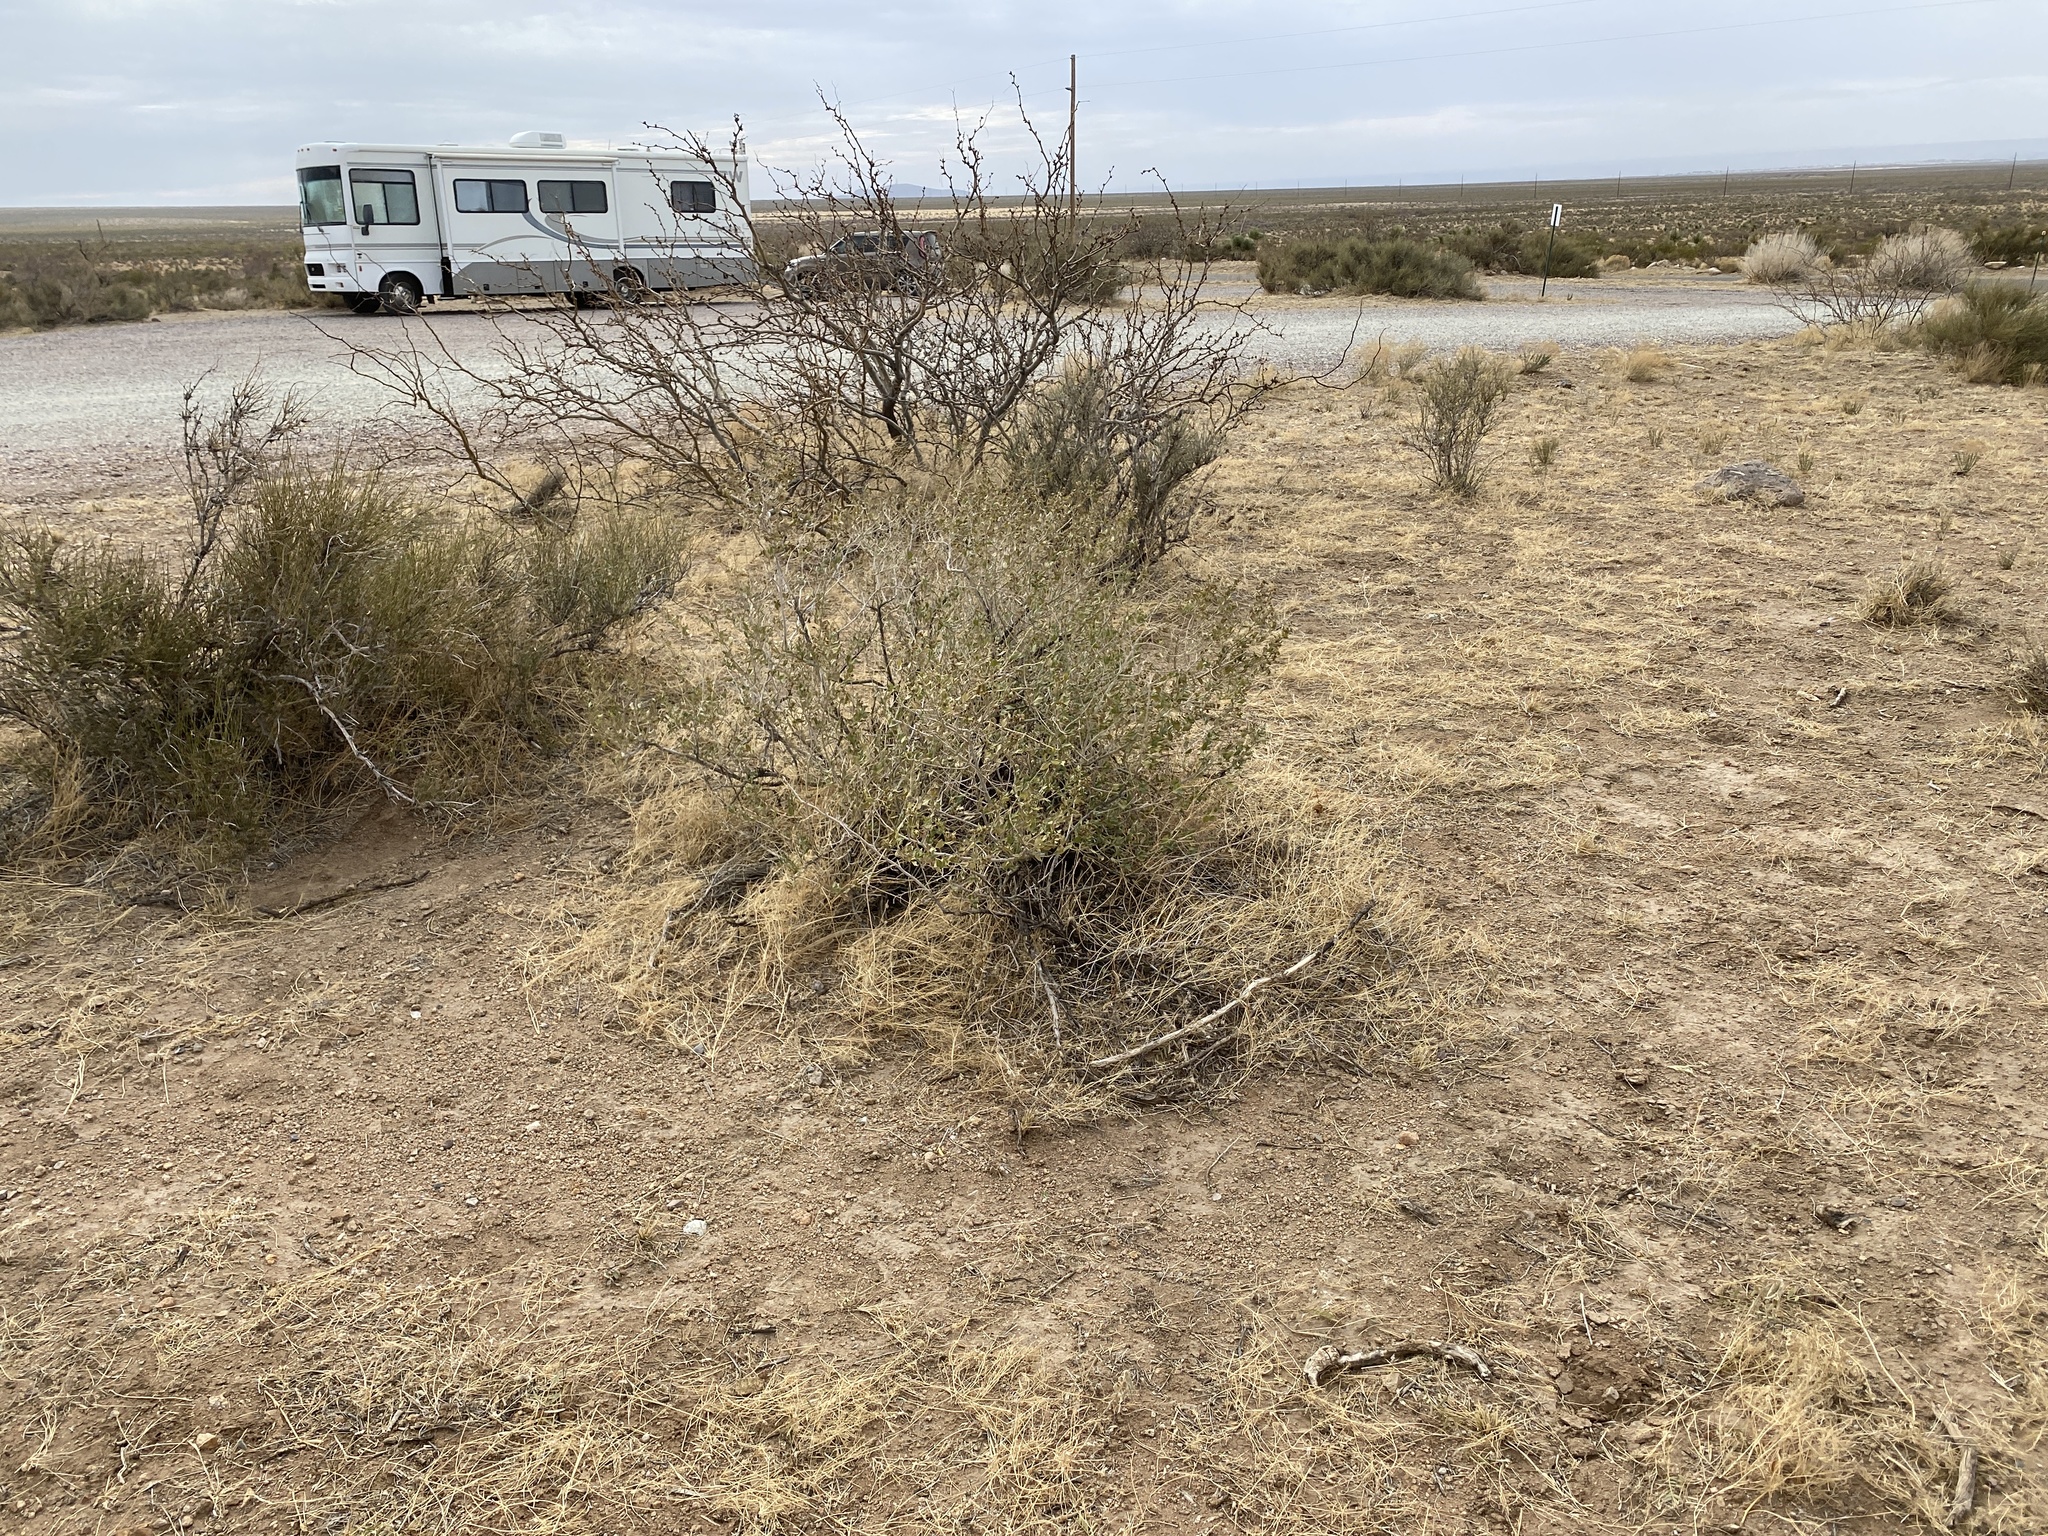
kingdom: Plantae
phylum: Tracheophyta
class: Magnoliopsida
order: Asterales
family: Asteraceae
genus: Flourensia
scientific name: Flourensia cernua
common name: Varnishbush
